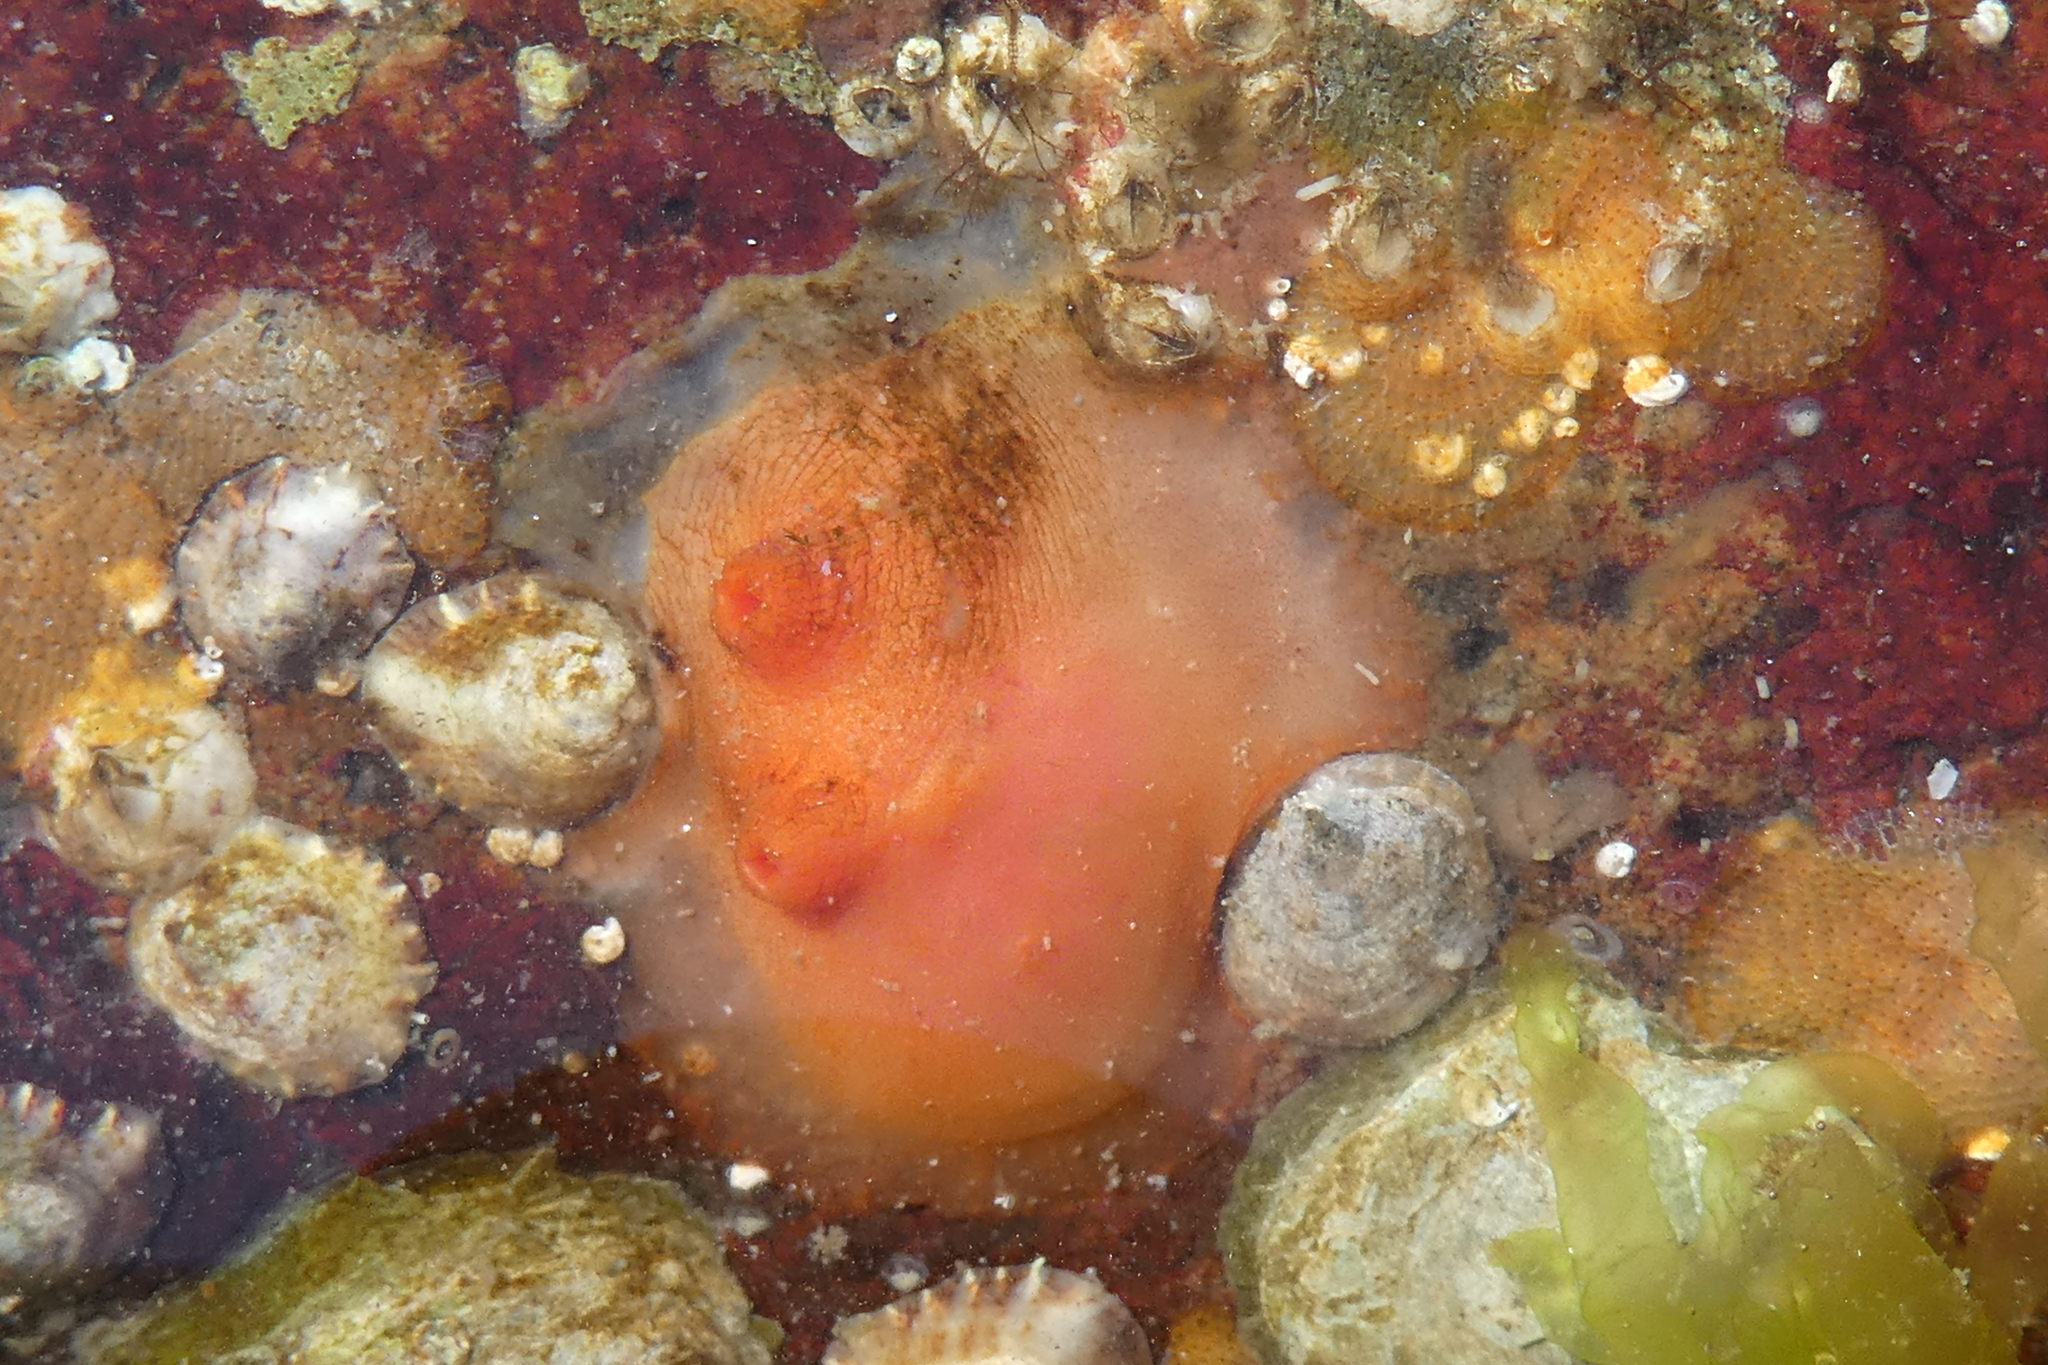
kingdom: Animalia
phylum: Chordata
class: Ascidiacea
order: Stolidobranchia
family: Styelidae
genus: Cnemidocarpa
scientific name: Cnemidocarpa finmarkiensis
